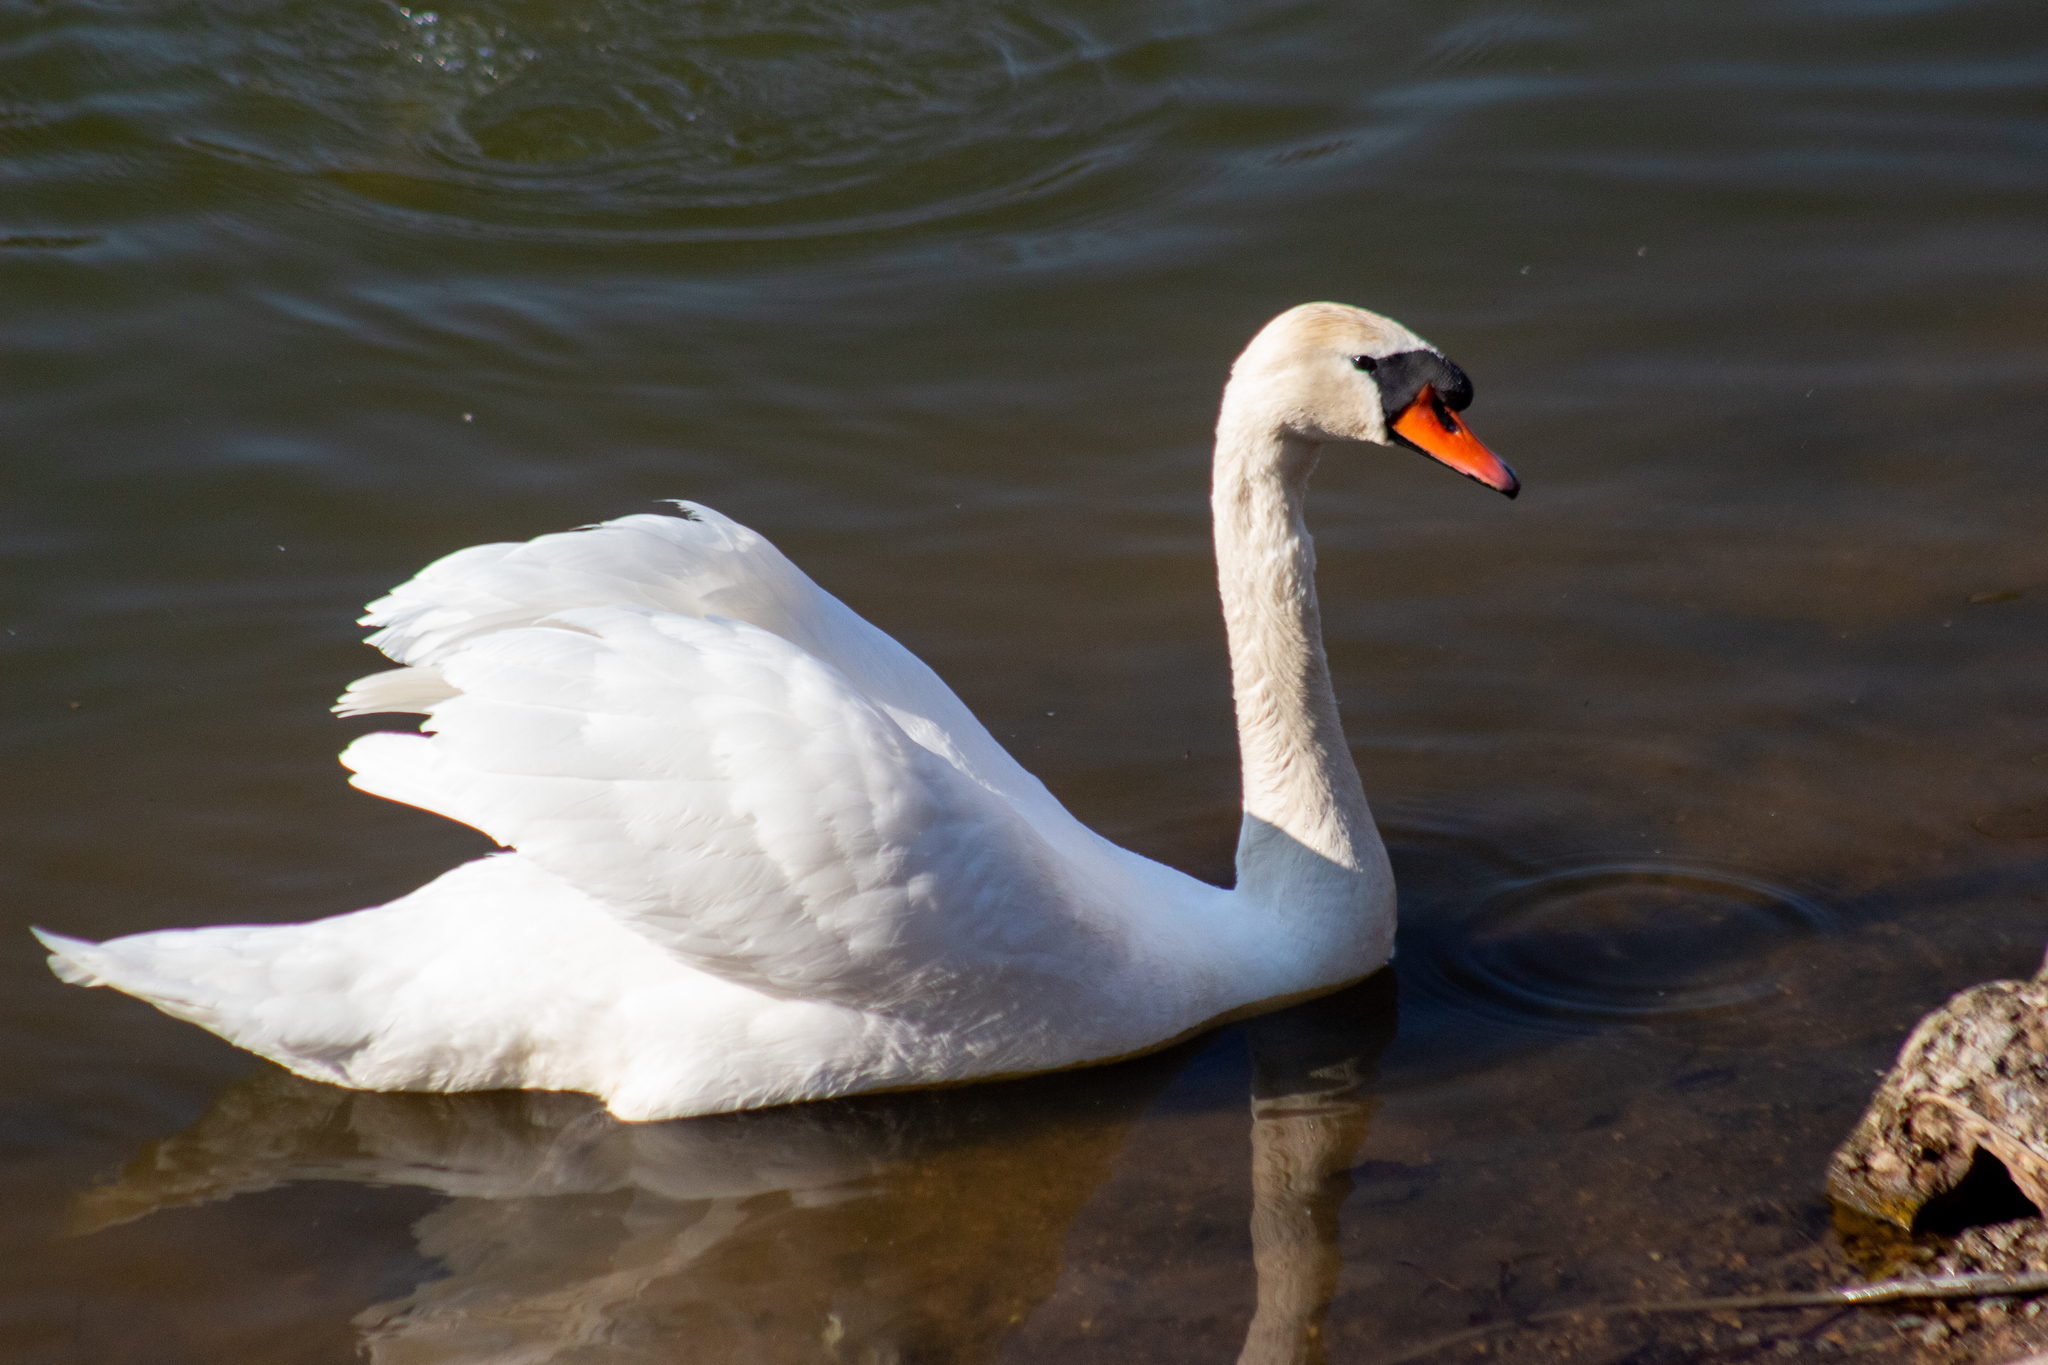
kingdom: Animalia
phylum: Chordata
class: Aves
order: Anseriformes
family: Anatidae
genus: Cygnus
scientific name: Cygnus olor
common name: Mute swan
